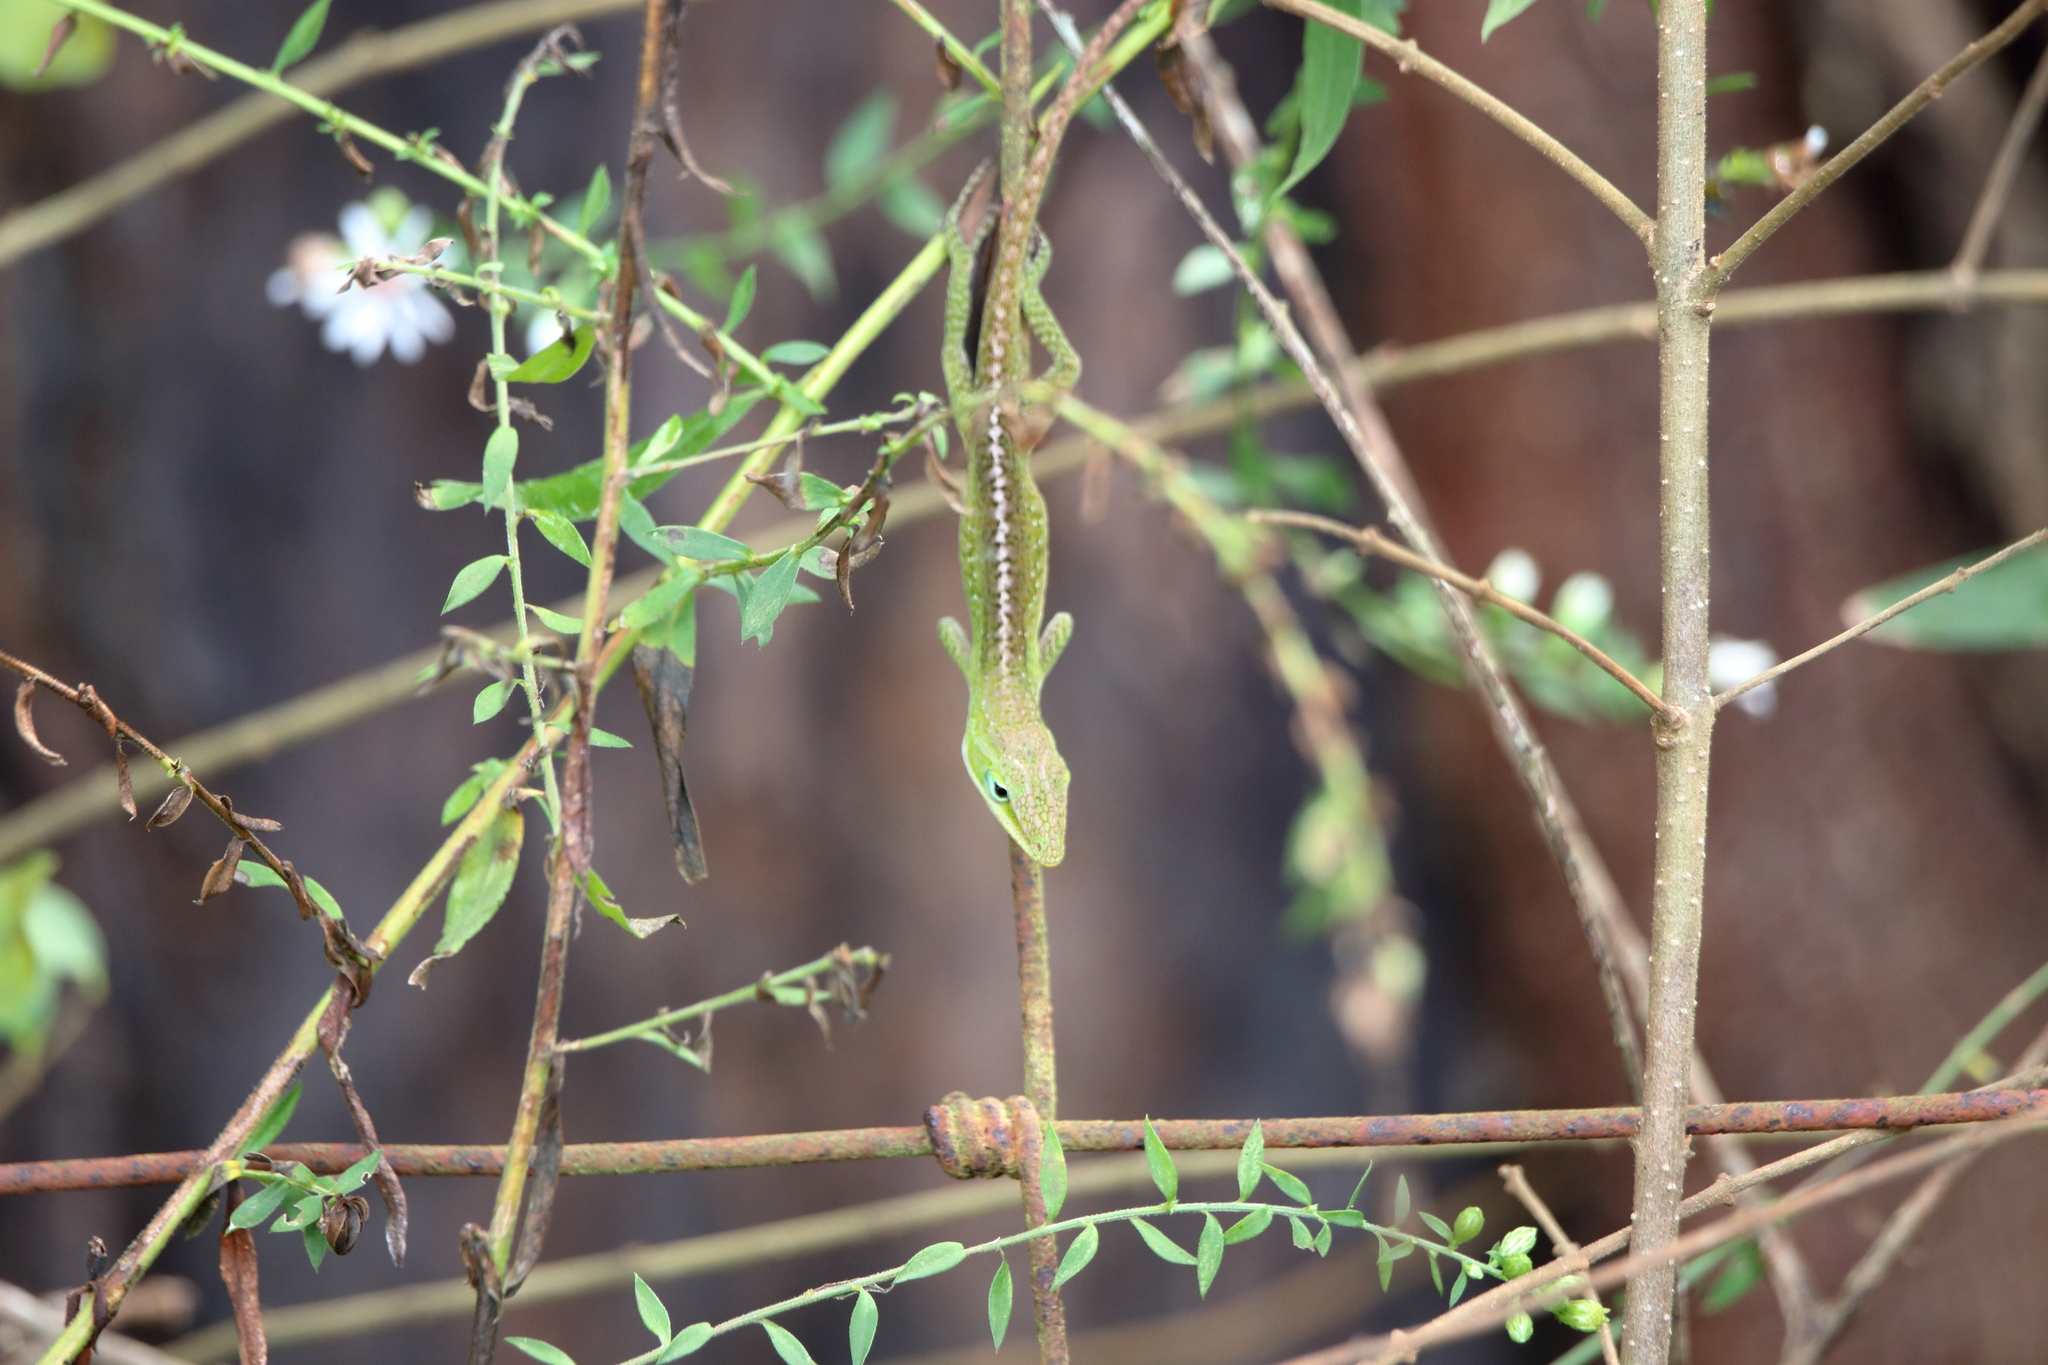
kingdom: Animalia
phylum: Chordata
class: Squamata
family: Dactyloidae
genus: Anolis
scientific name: Anolis carolinensis
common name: Green anole
